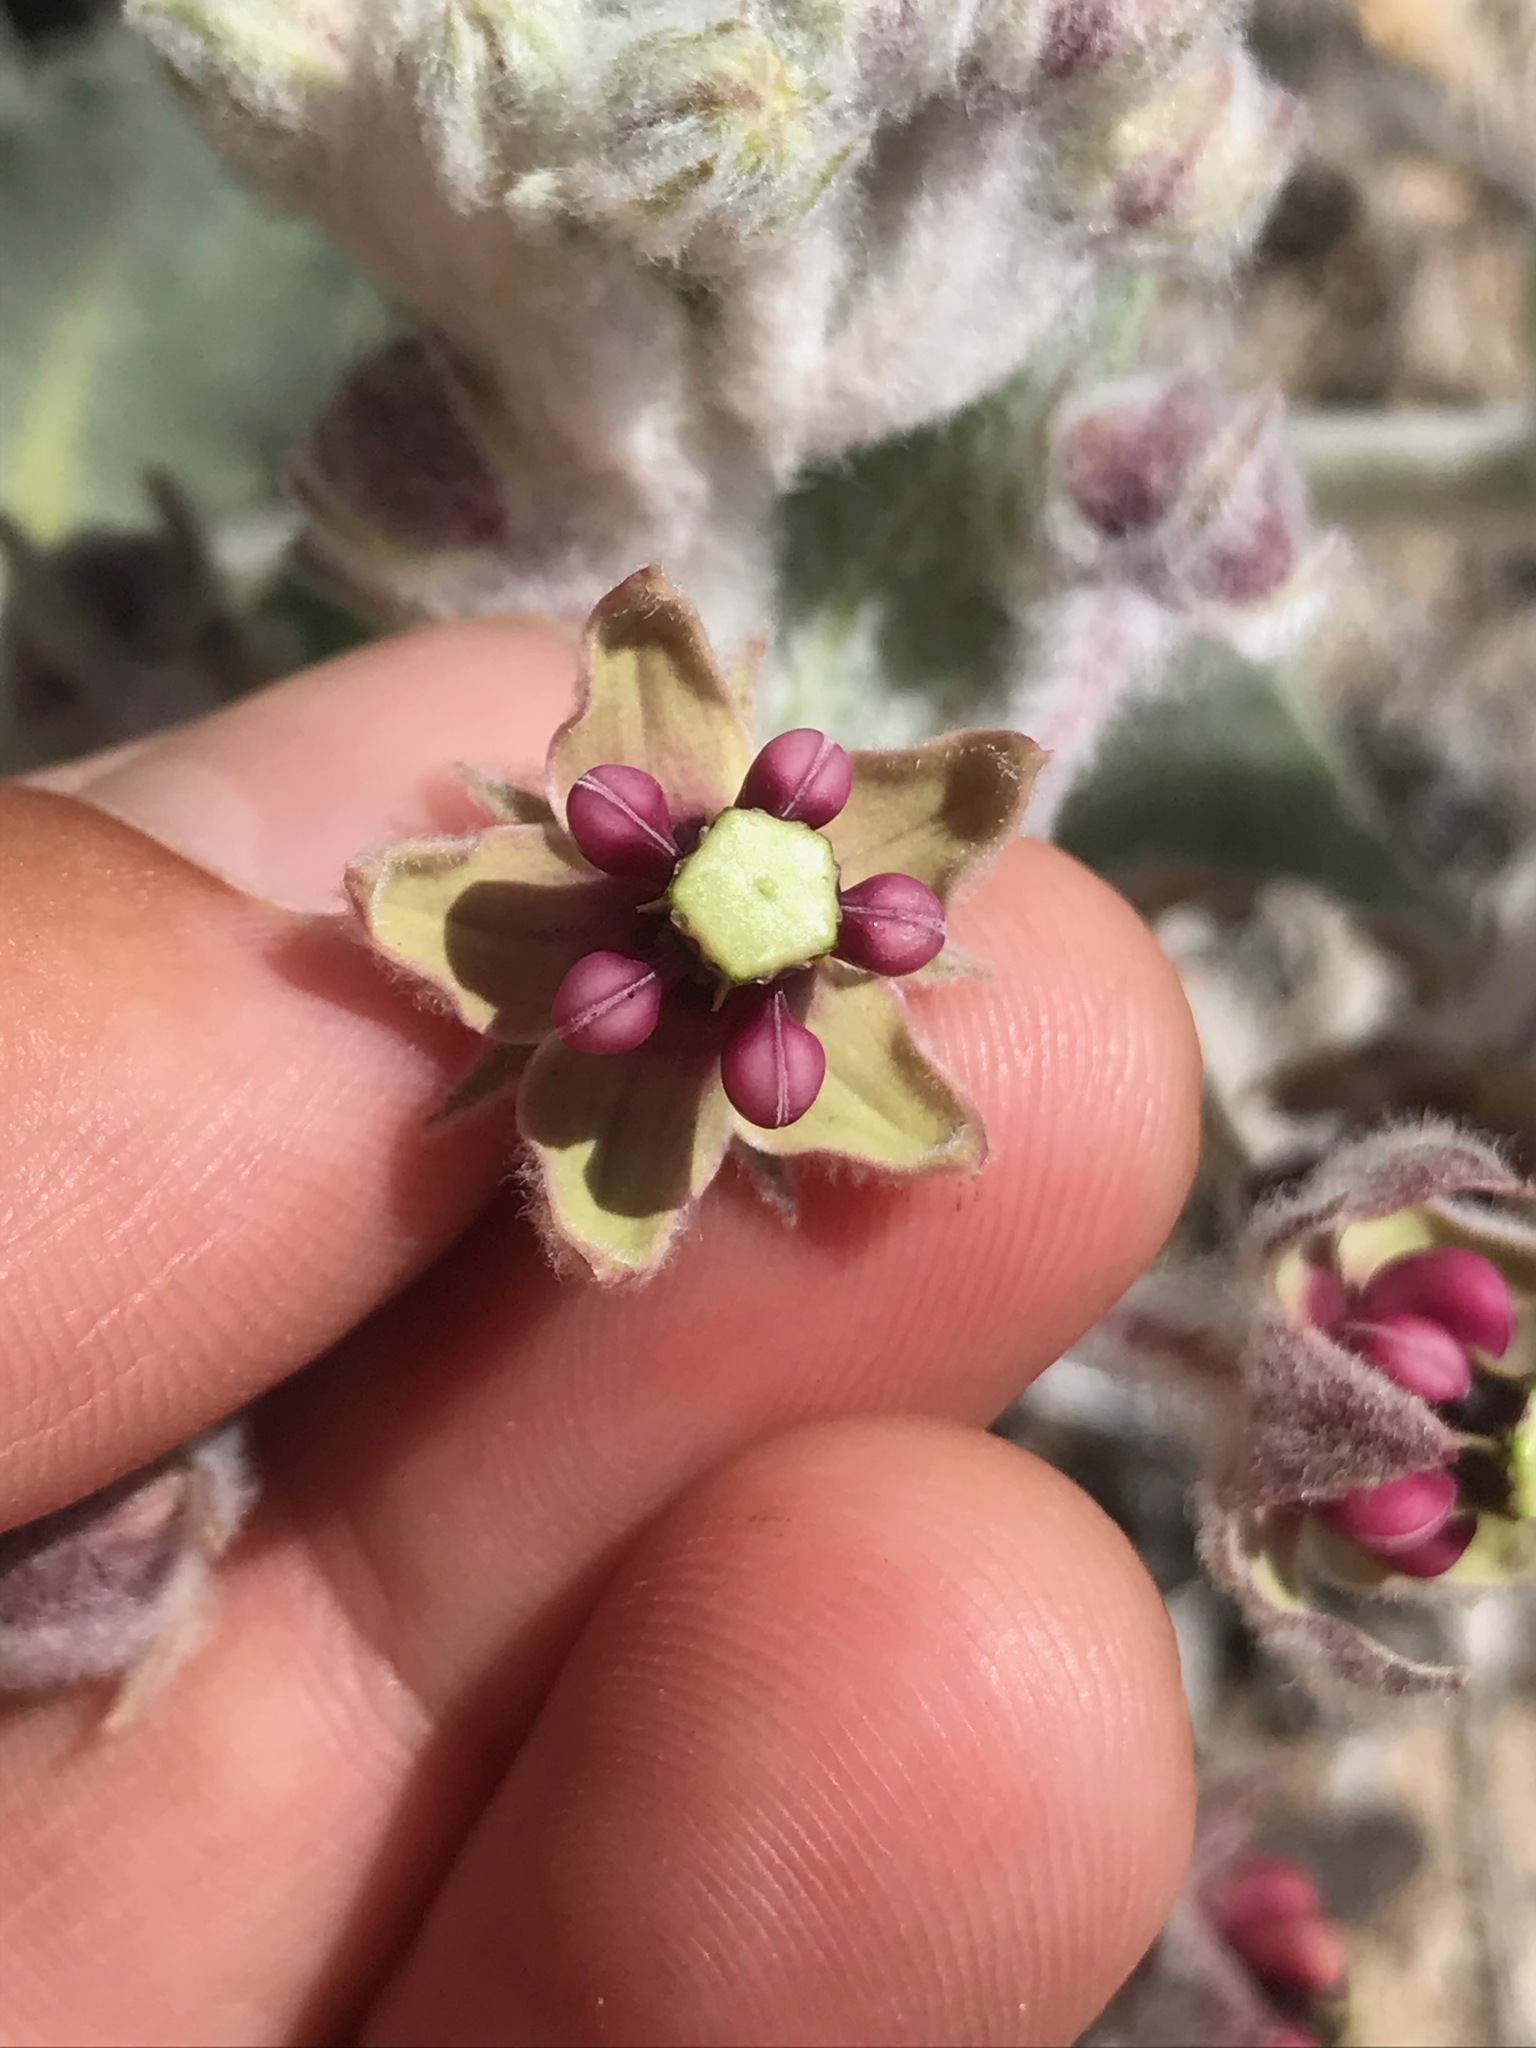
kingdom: Plantae
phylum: Tracheophyta
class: Magnoliopsida
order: Gentianales
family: Apocynaceae
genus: Asclepias
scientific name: Asclepias californica
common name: California milkweed
